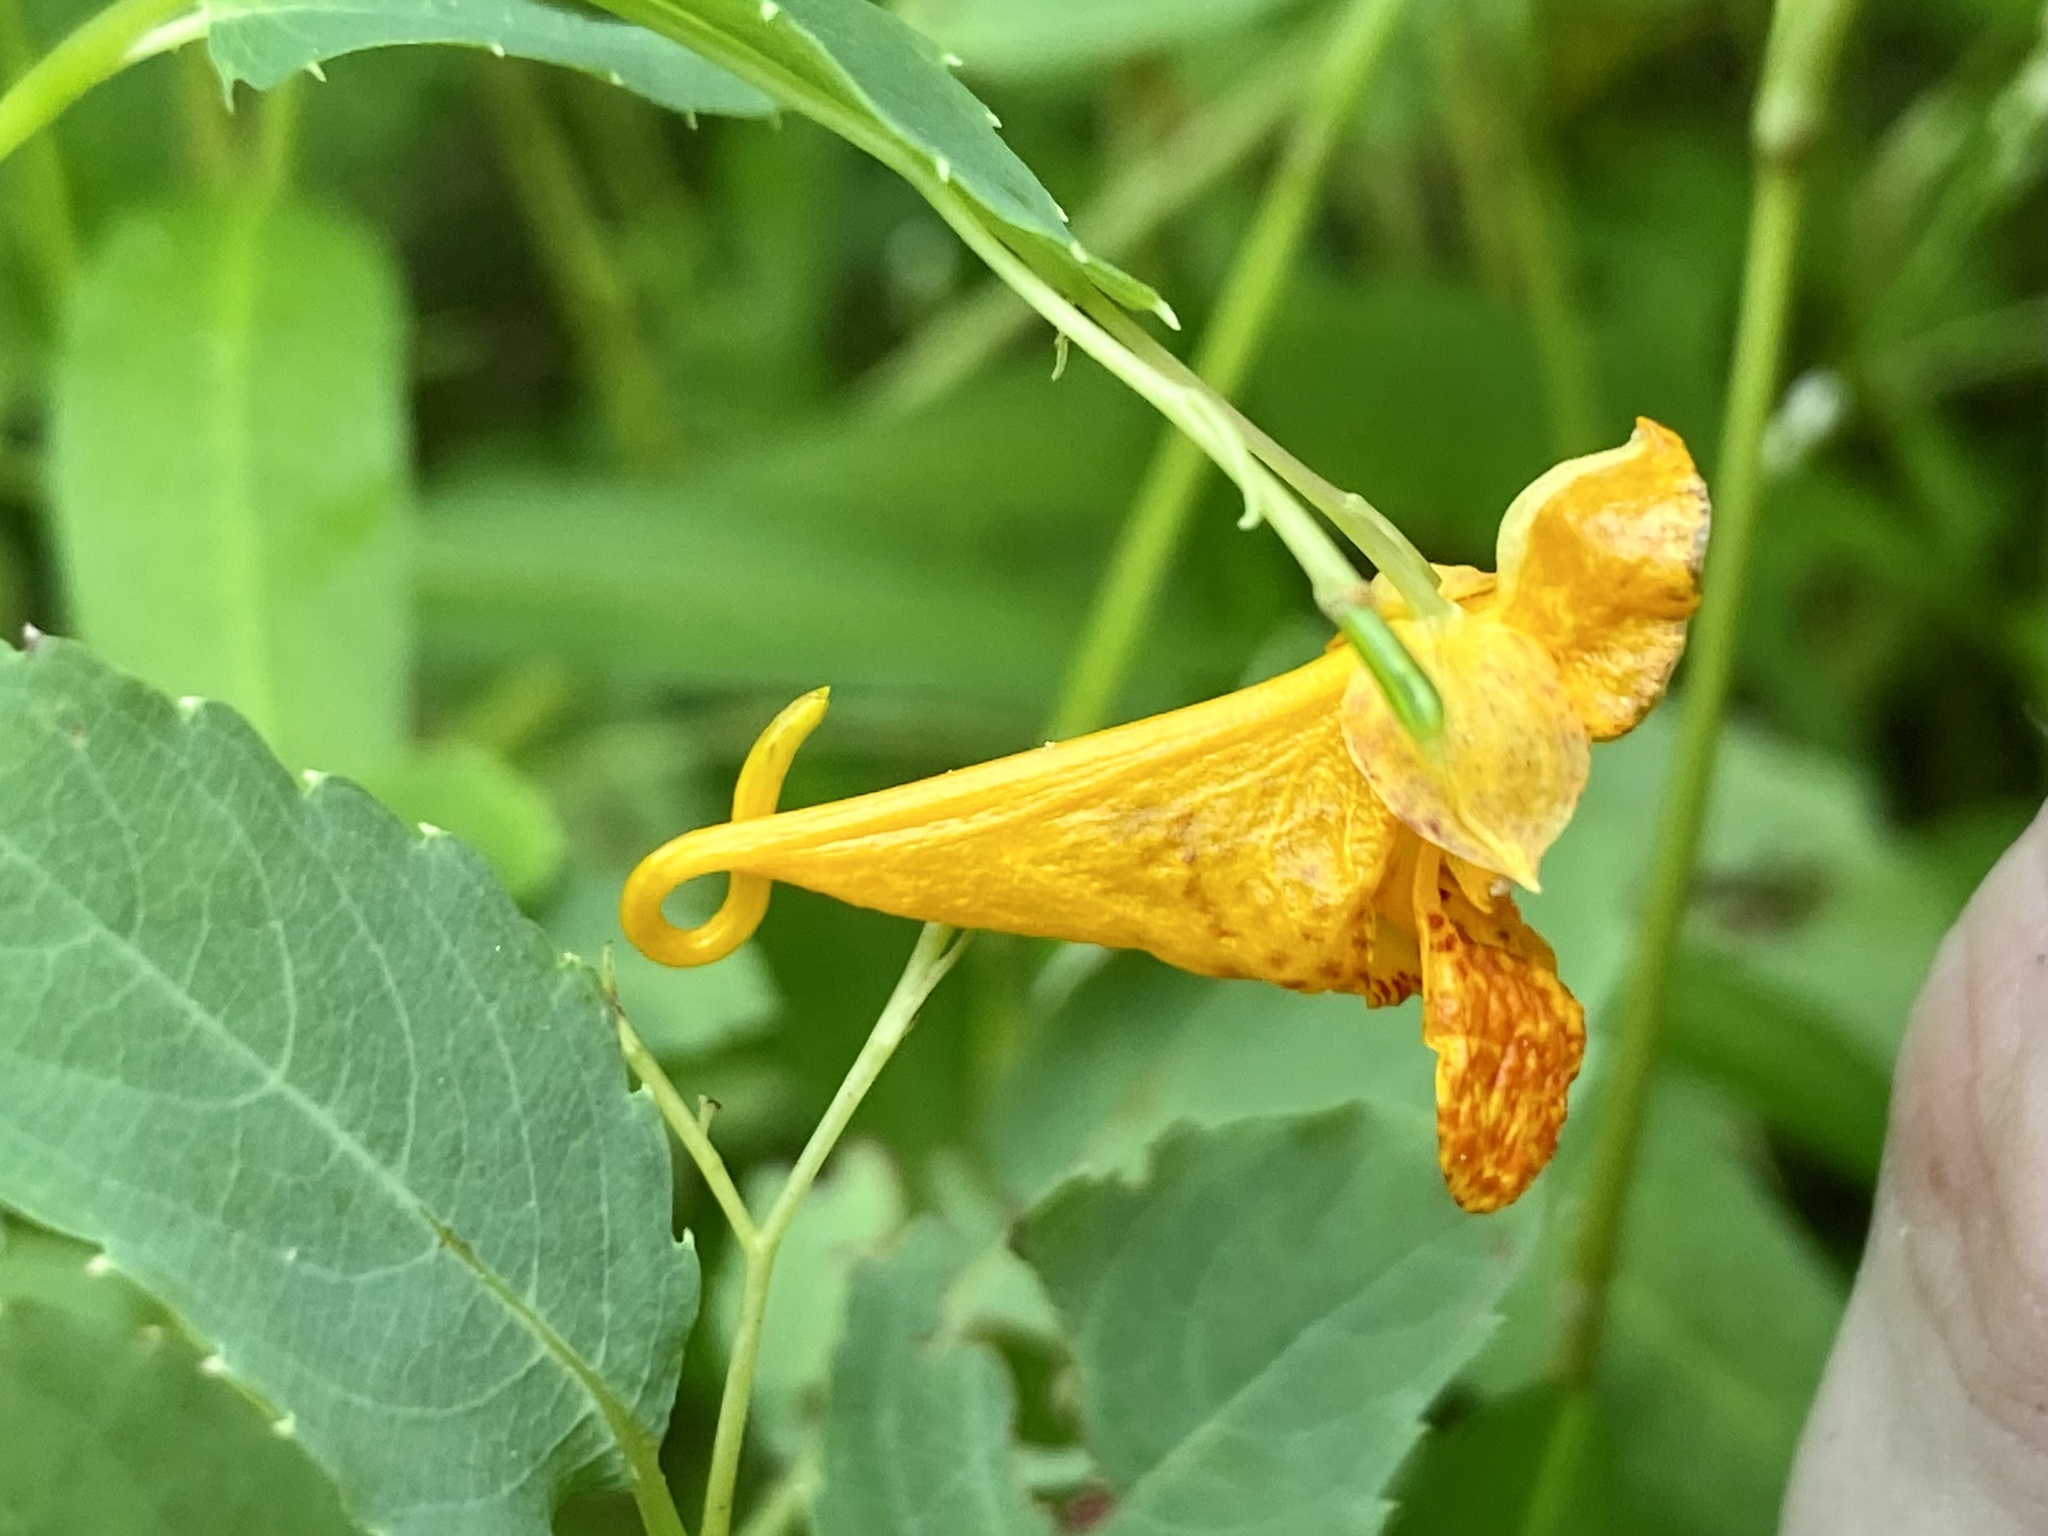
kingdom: Plantae
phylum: Tracheophyta
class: Magnoliopsida
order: Ericales
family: Balsaminaceae
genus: Impatiens
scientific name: Impatiens capensis
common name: Orange balsam
